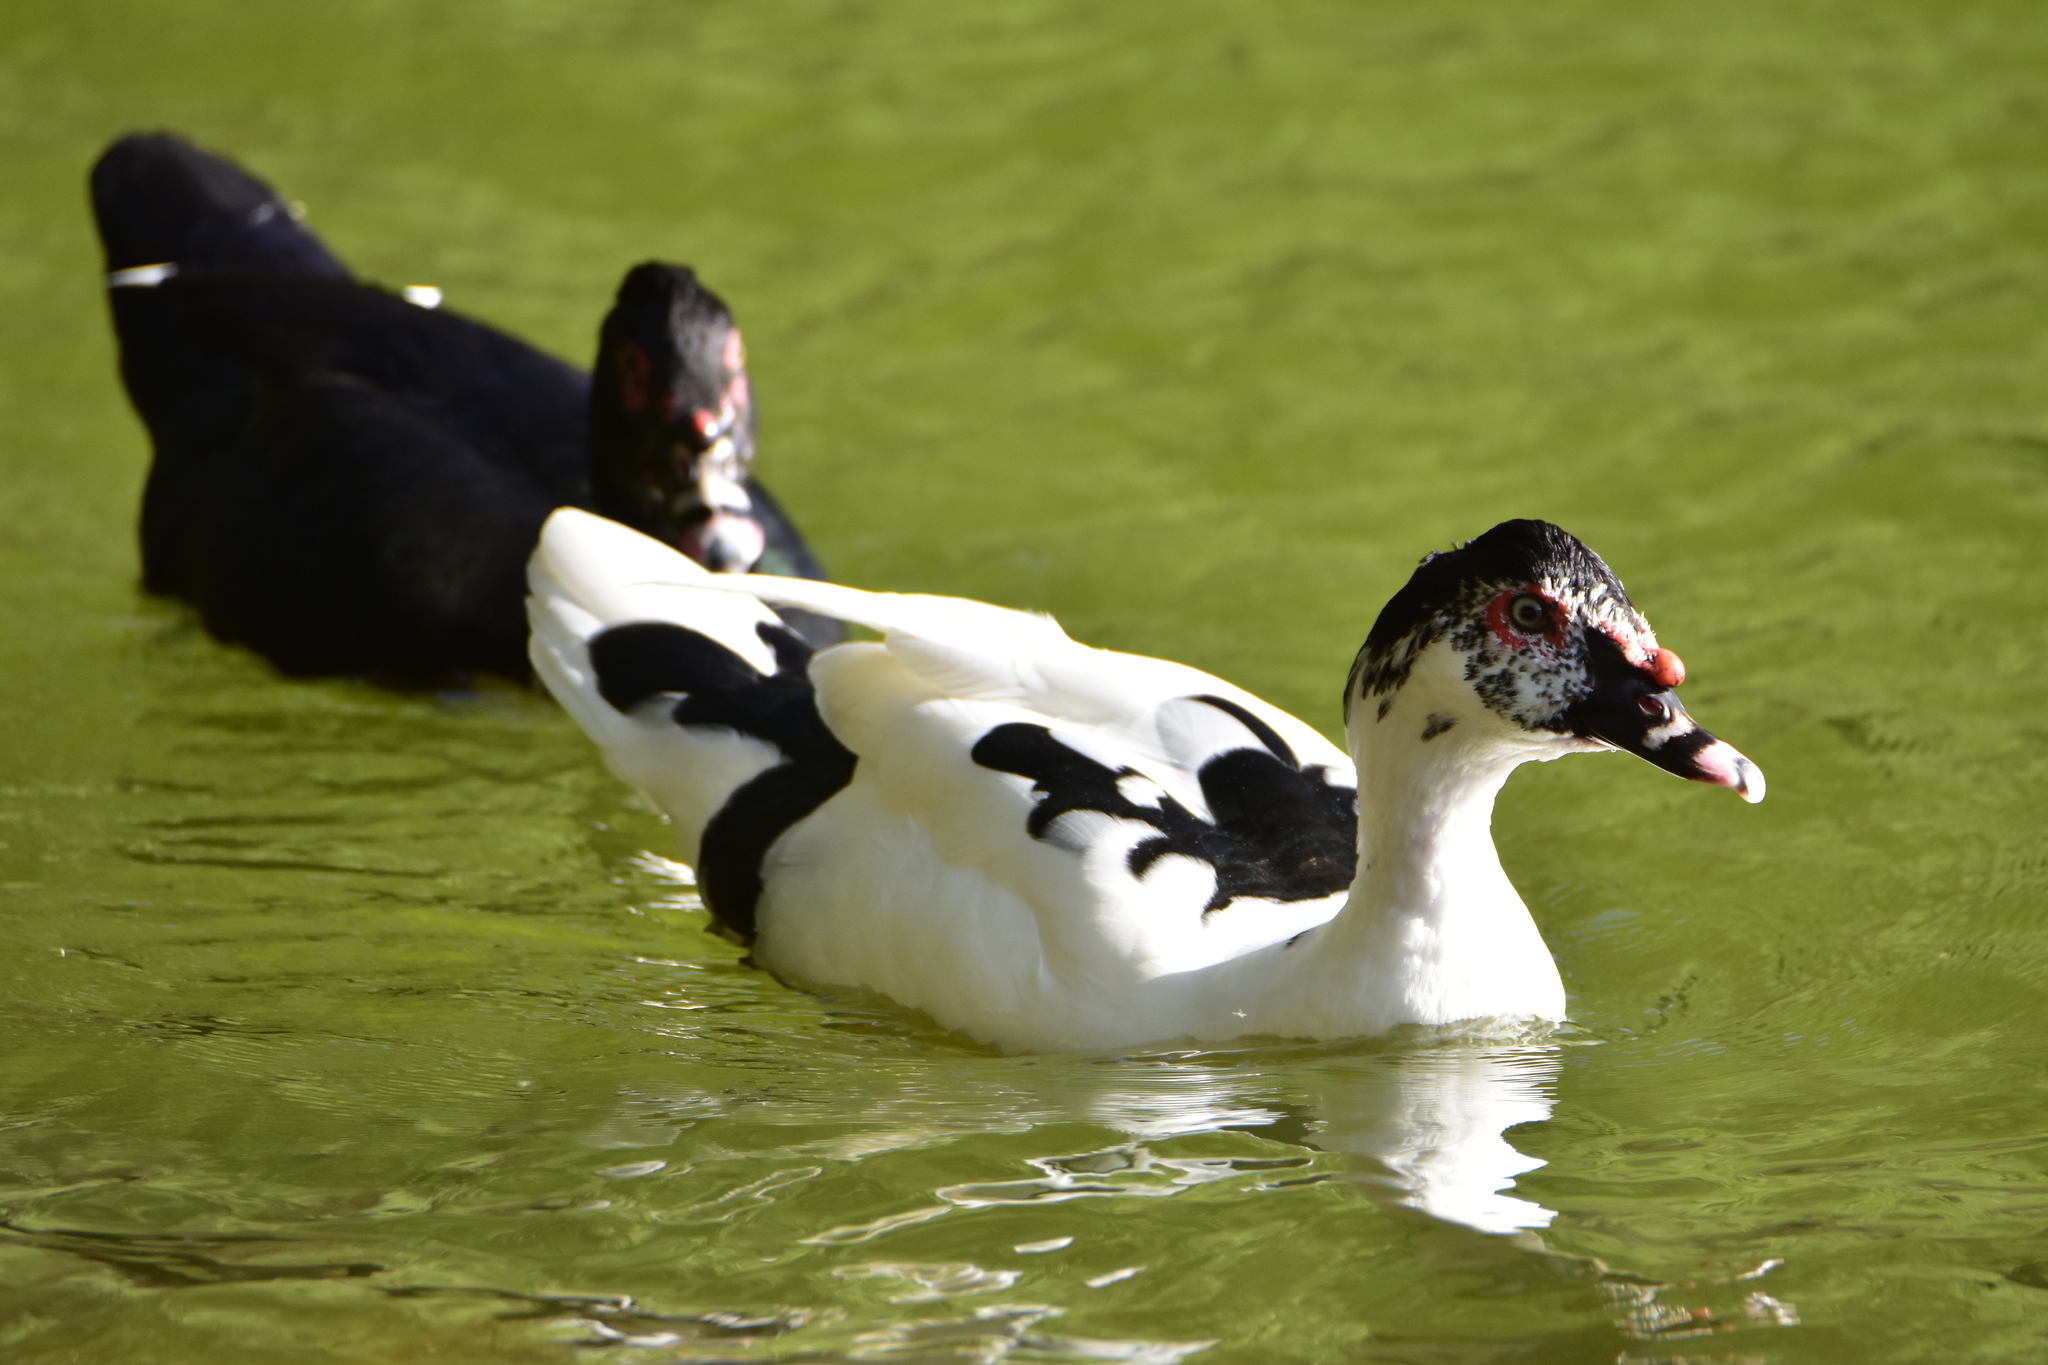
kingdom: Animalia
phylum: Chordata
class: Aves
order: Anseriformes
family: Anatidae
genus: Cairina
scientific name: Cairina moschata
